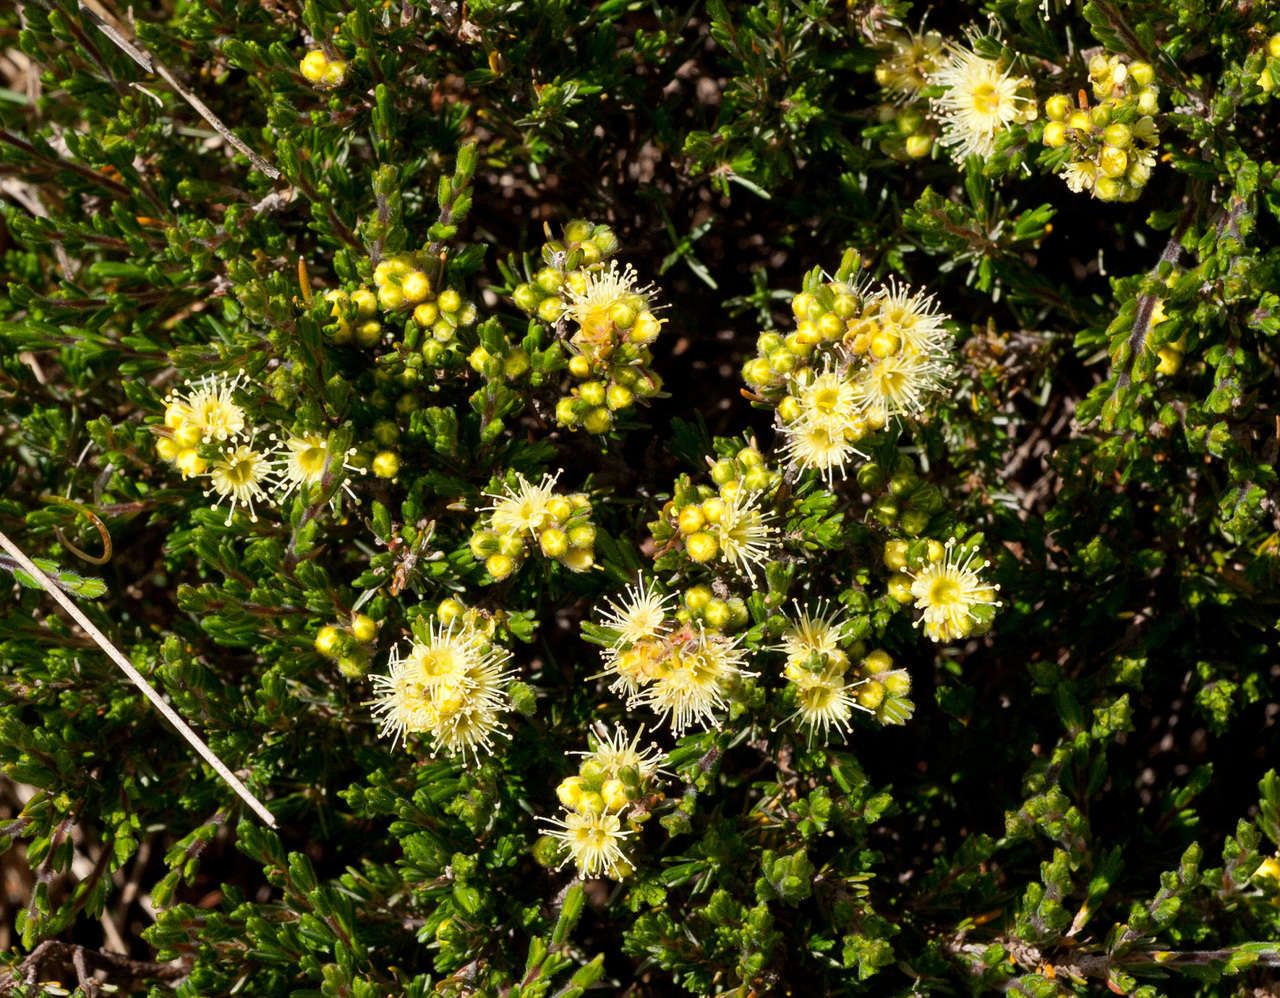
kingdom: Plantae
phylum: Tracheophyta
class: Magnoliopsida
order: Myrtales
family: Myrtaceae
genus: Kunzea
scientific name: Kunzea muelleri
